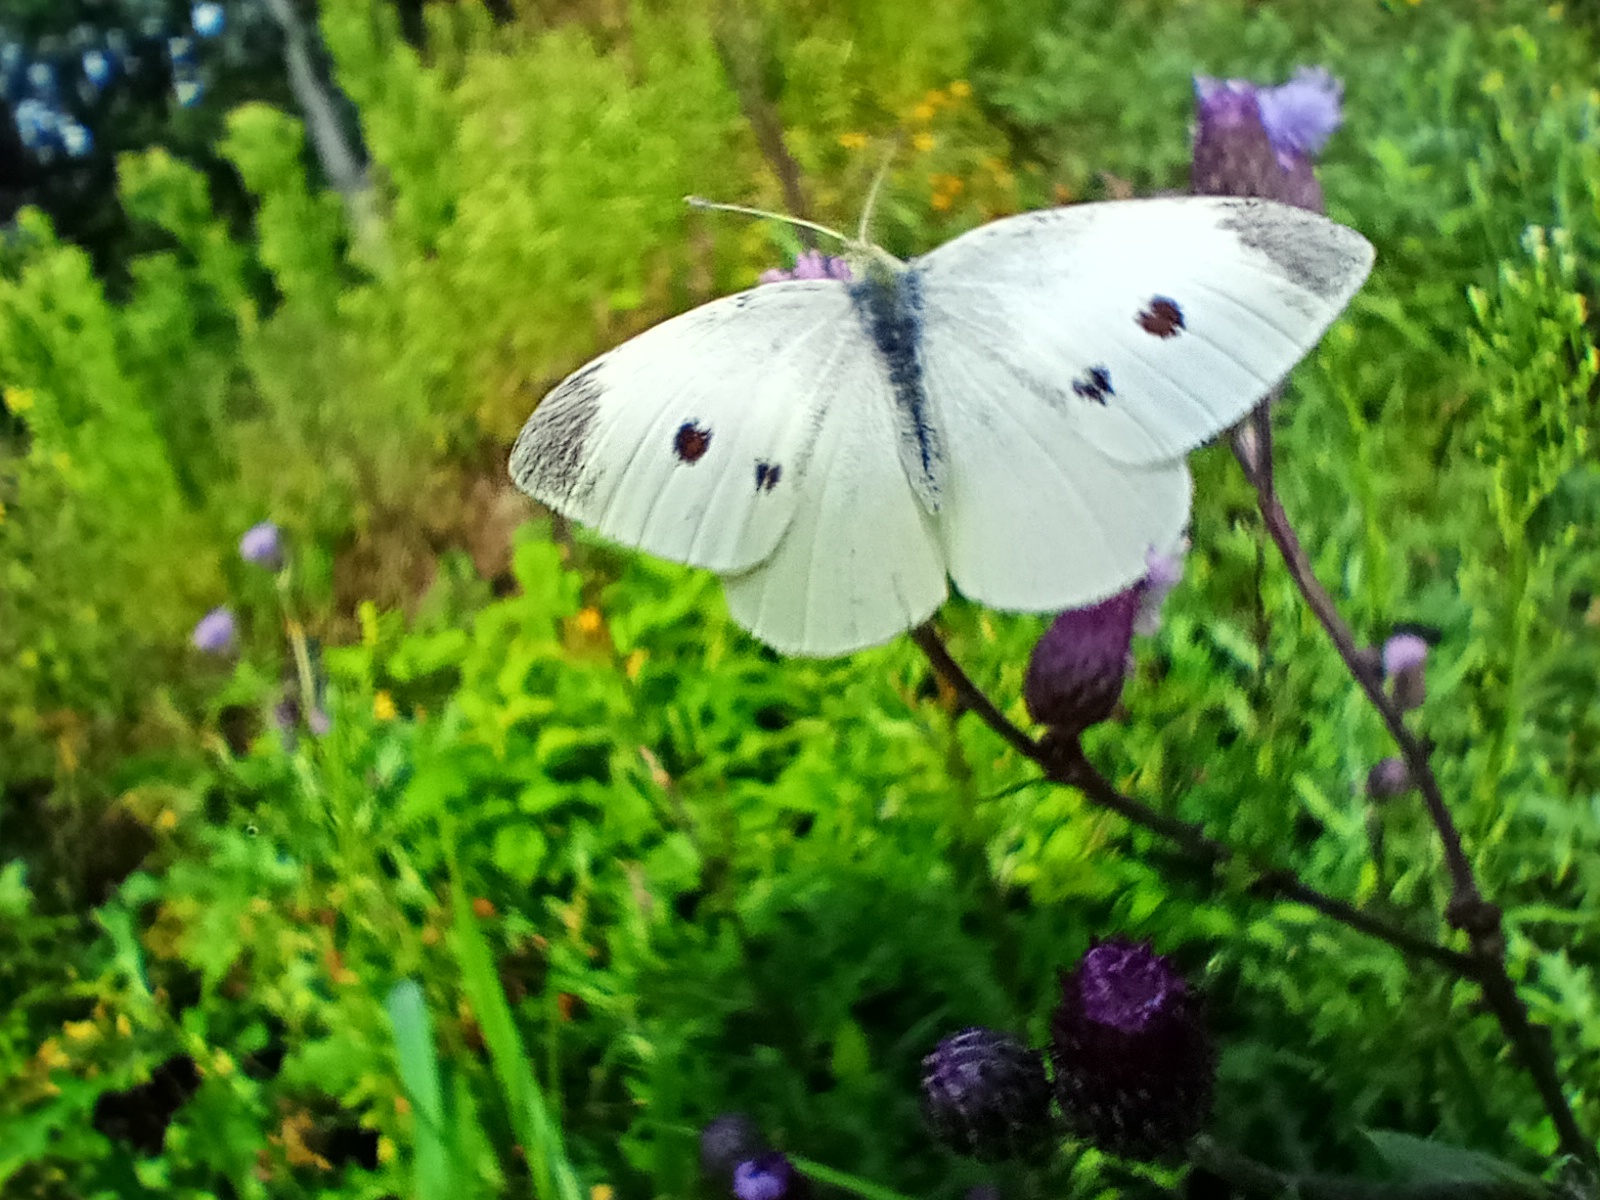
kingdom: Animalia
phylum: Arthropoda
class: Insecta
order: Lepidoptera
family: Pieridae
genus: Pieris
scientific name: Pieris rapae
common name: Small white
